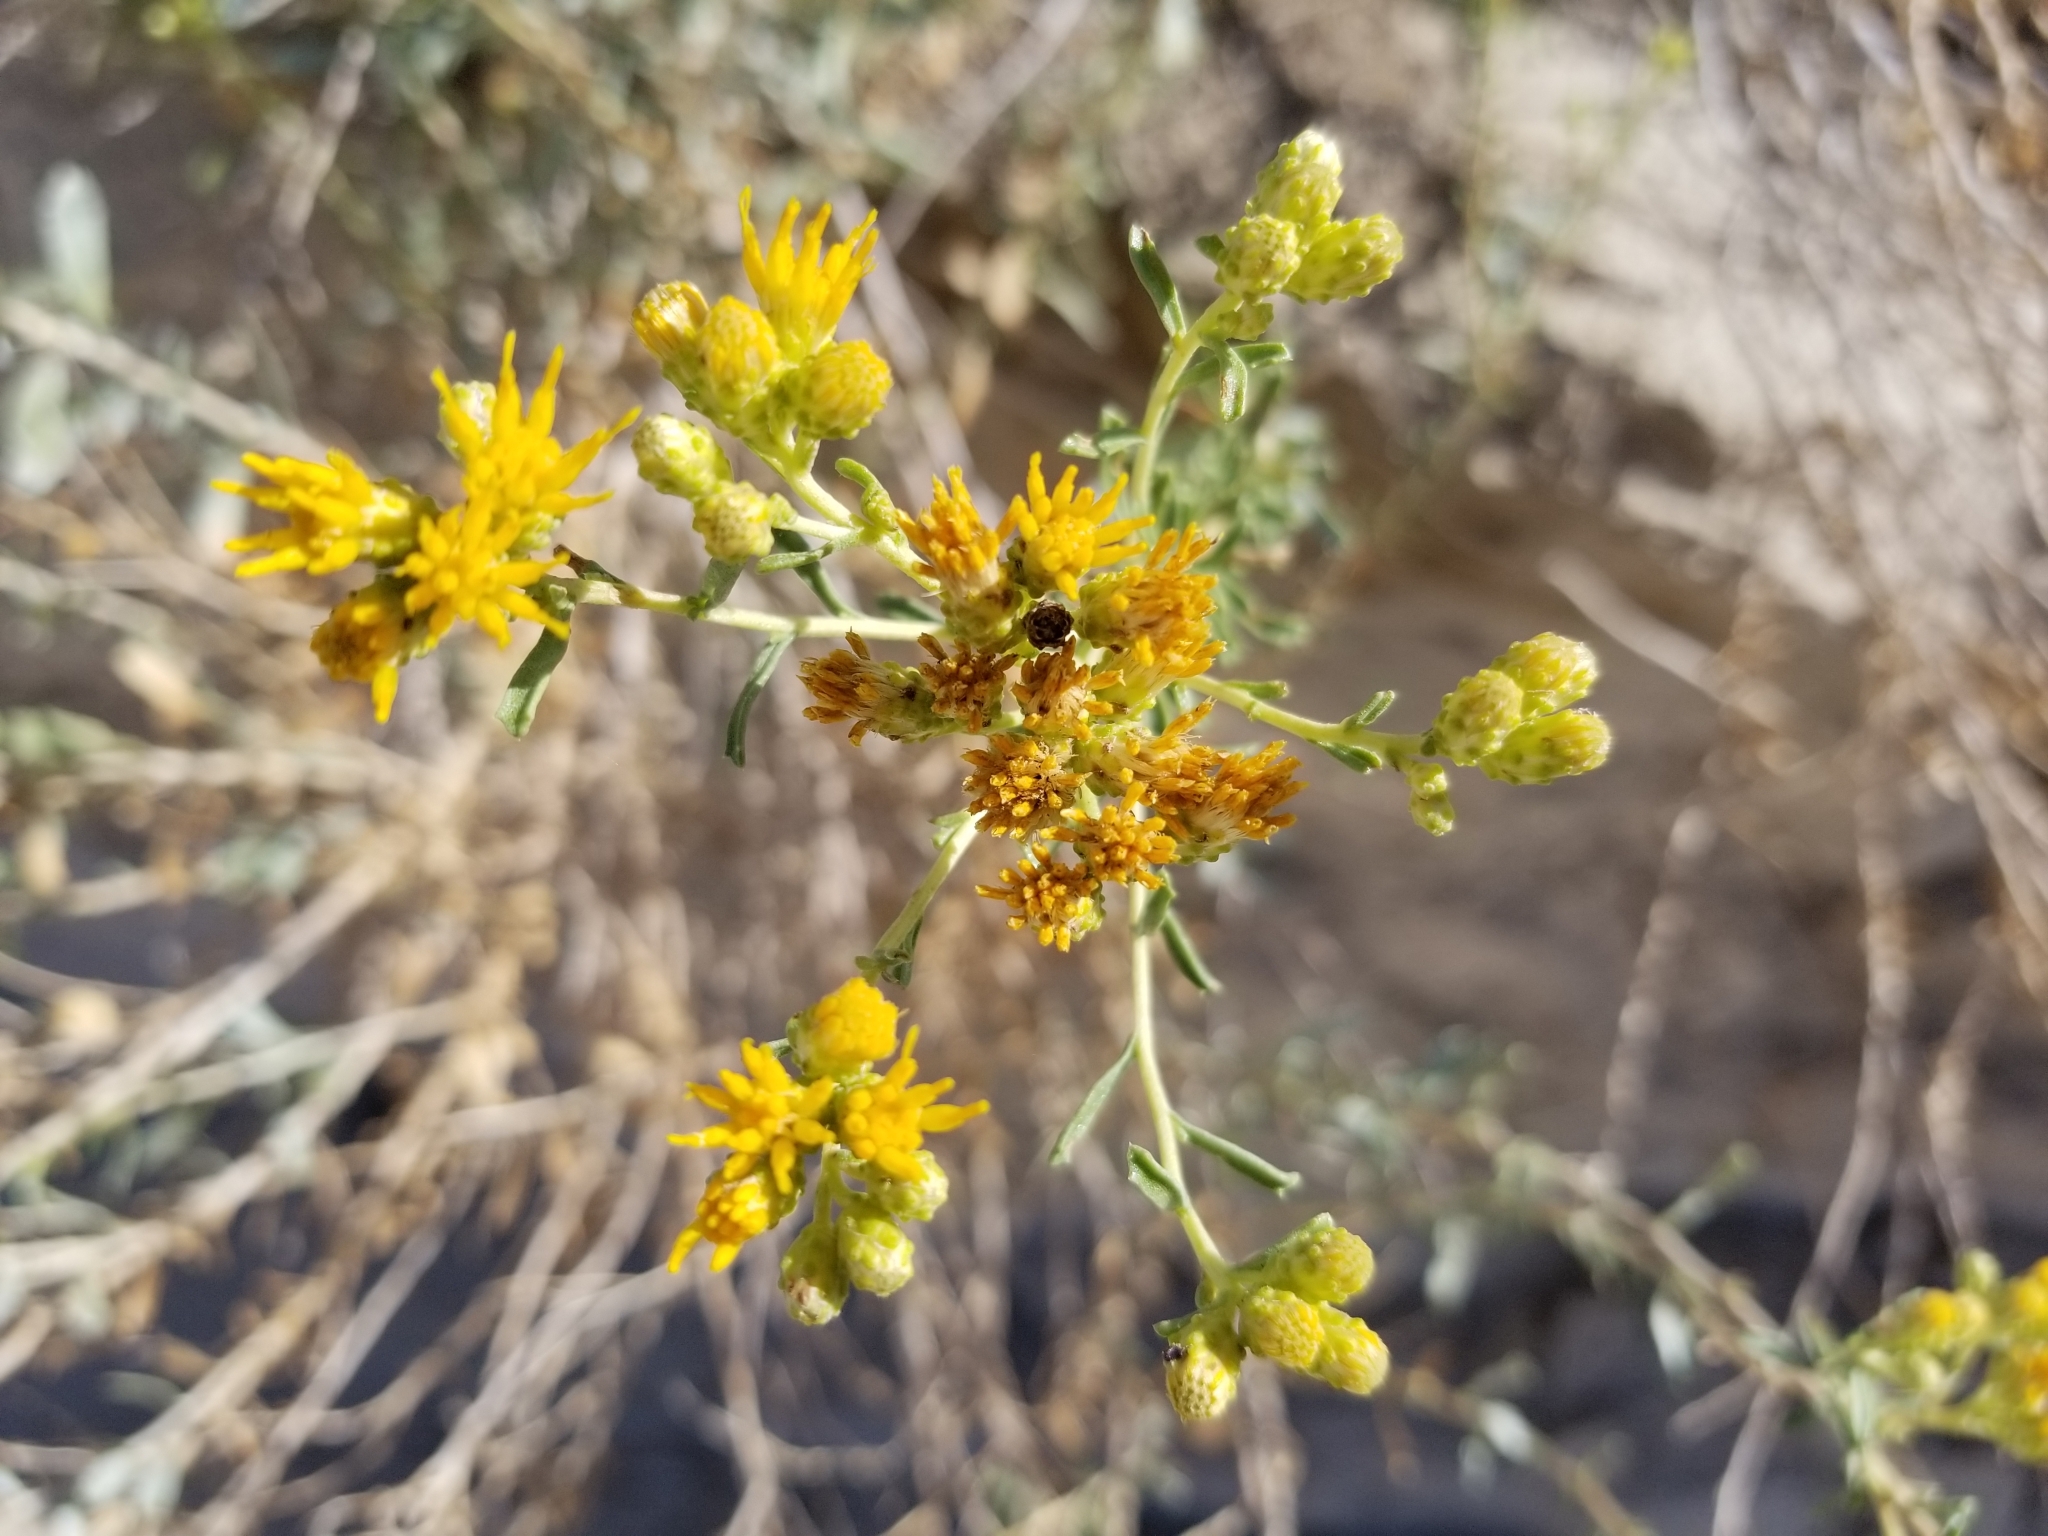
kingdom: Plantae
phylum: Tracheophyta
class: Magnoliopsida
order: Asterales
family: Asteraceae
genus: Isocoma
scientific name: Isocoma acradenia
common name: Alkali jimmyweed
